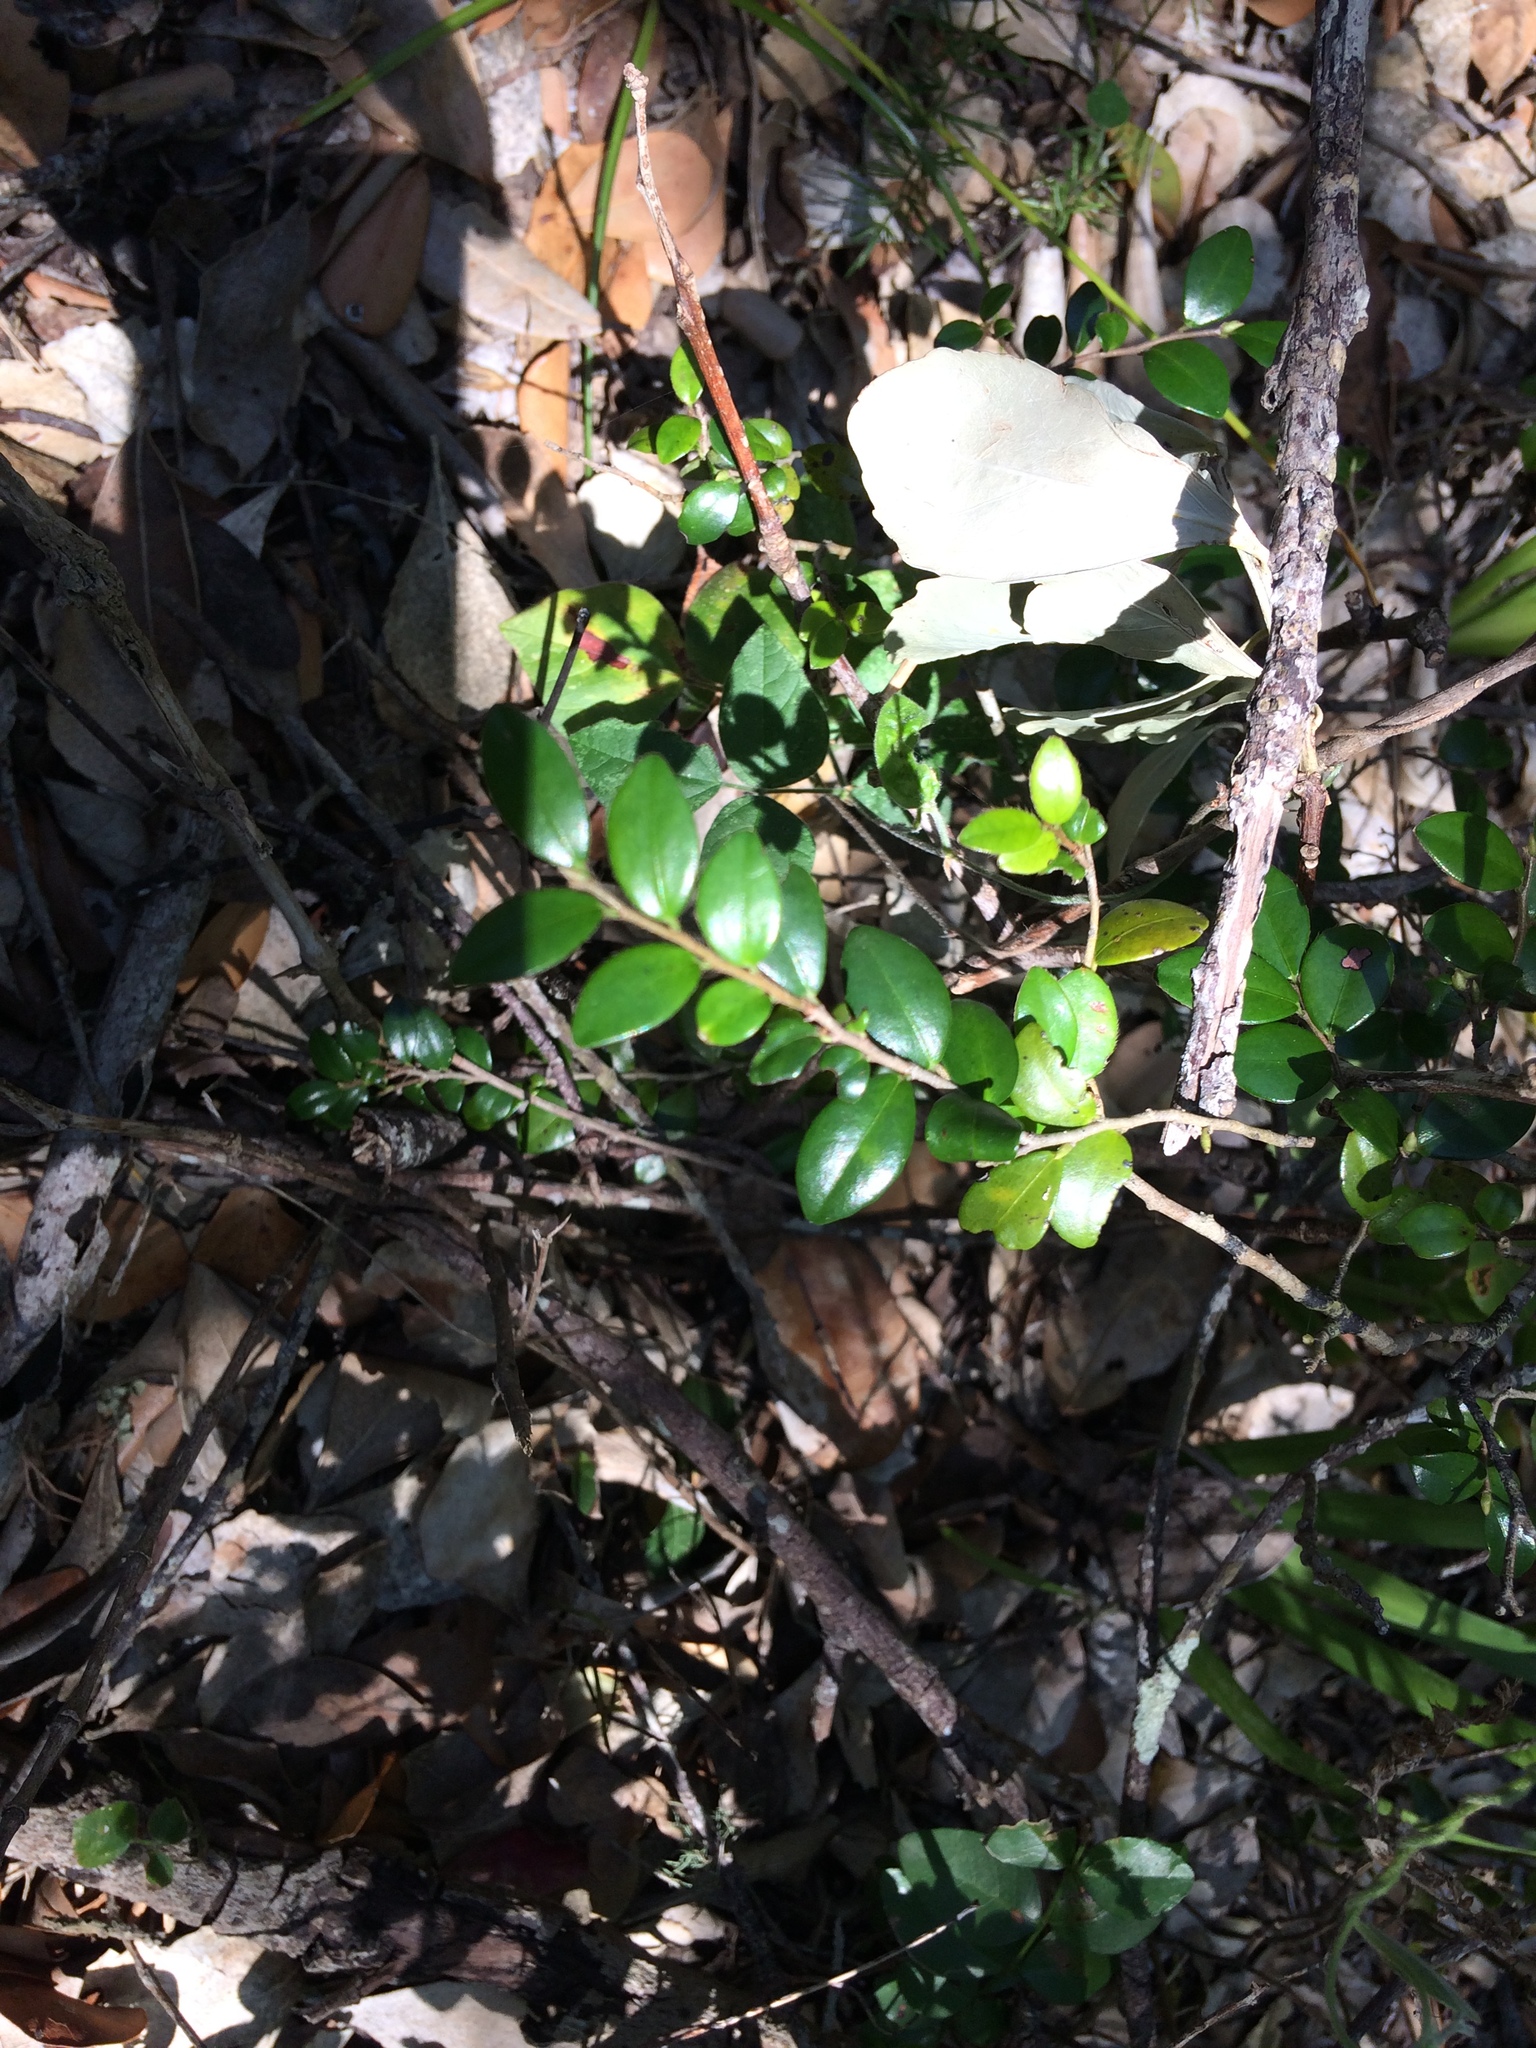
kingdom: Plantae
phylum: Tracheophyta
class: Magnoliopsida
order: Ericales
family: Ebenaceae
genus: Diospyros
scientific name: Diospyros natalensis
